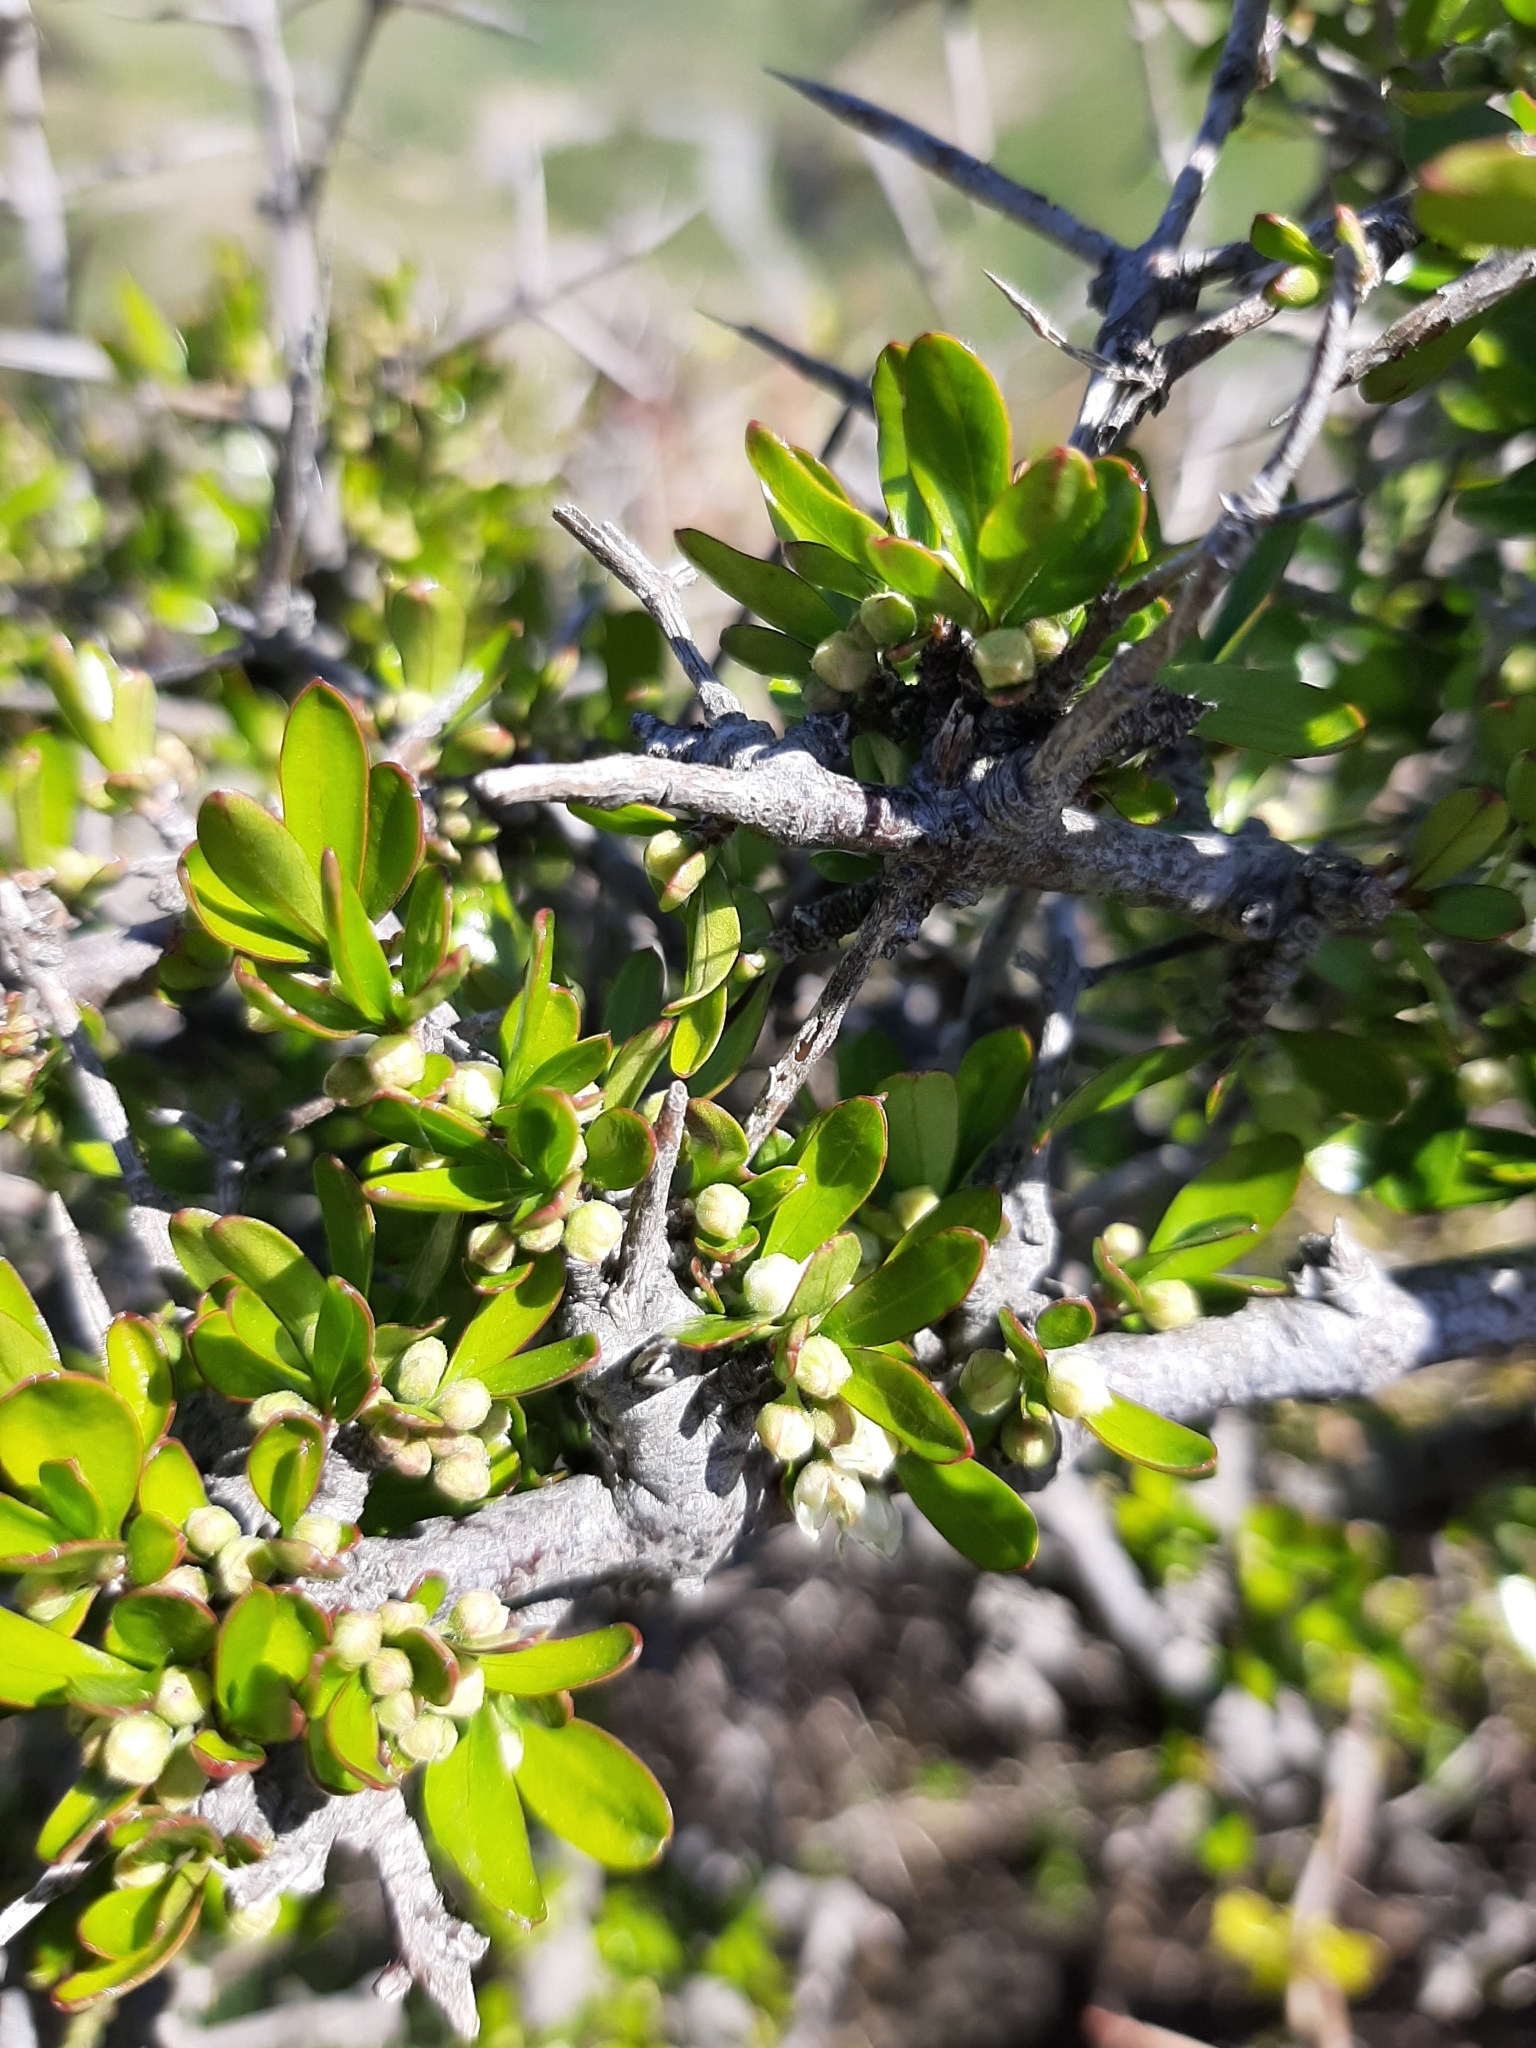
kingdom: Plantae
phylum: Tracheophyta
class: Magnoliopsida
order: Rosales
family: Rhamnaceae
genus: Discaria
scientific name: Discaria toumatou
